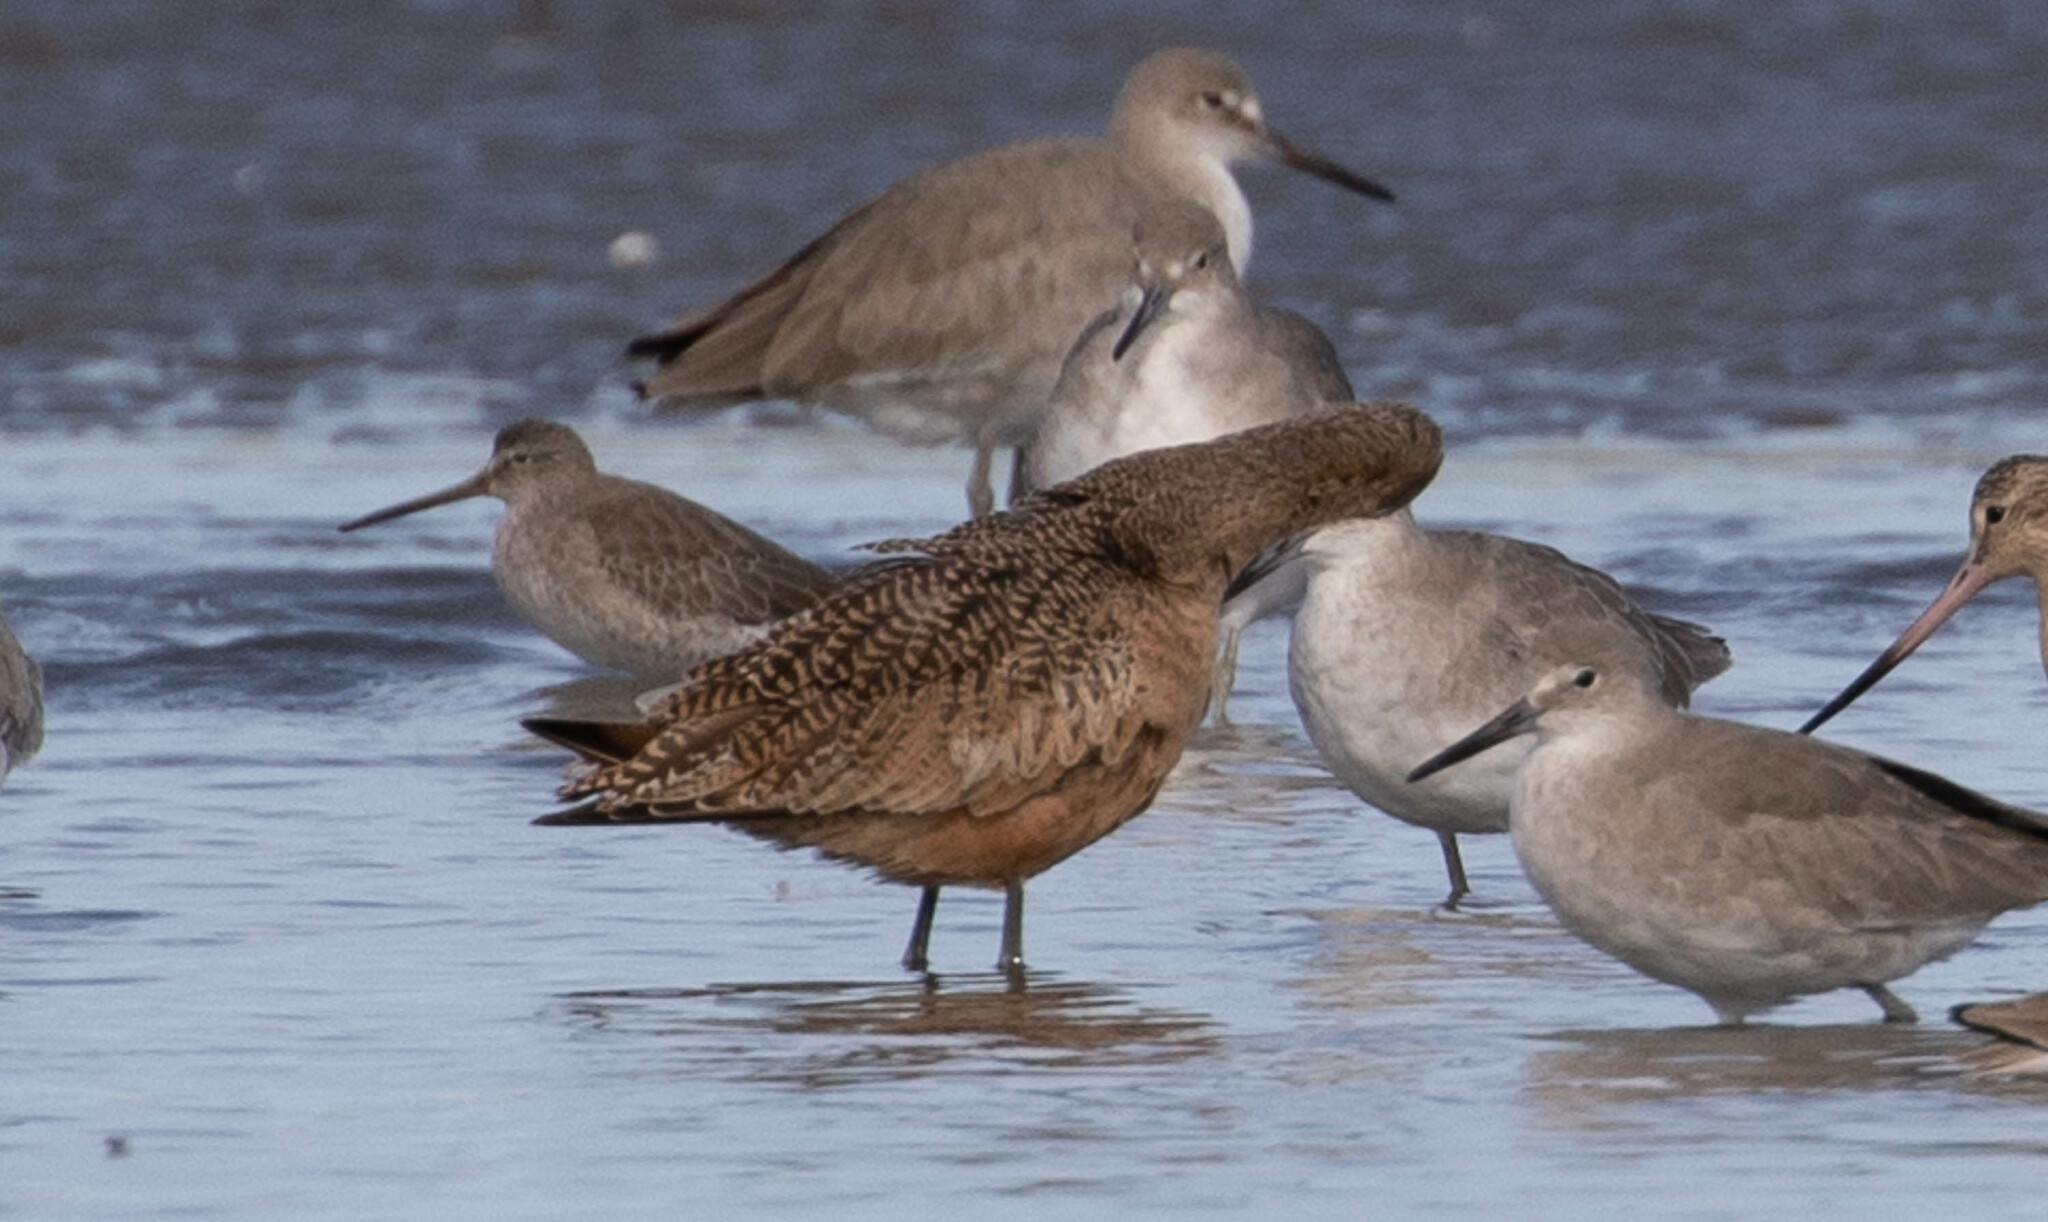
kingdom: Animalia
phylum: Chordata
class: Aves
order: Charadriiformes
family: Scolopacidae
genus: Limosa
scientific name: Limosa fedoa
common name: Marbled godwit
